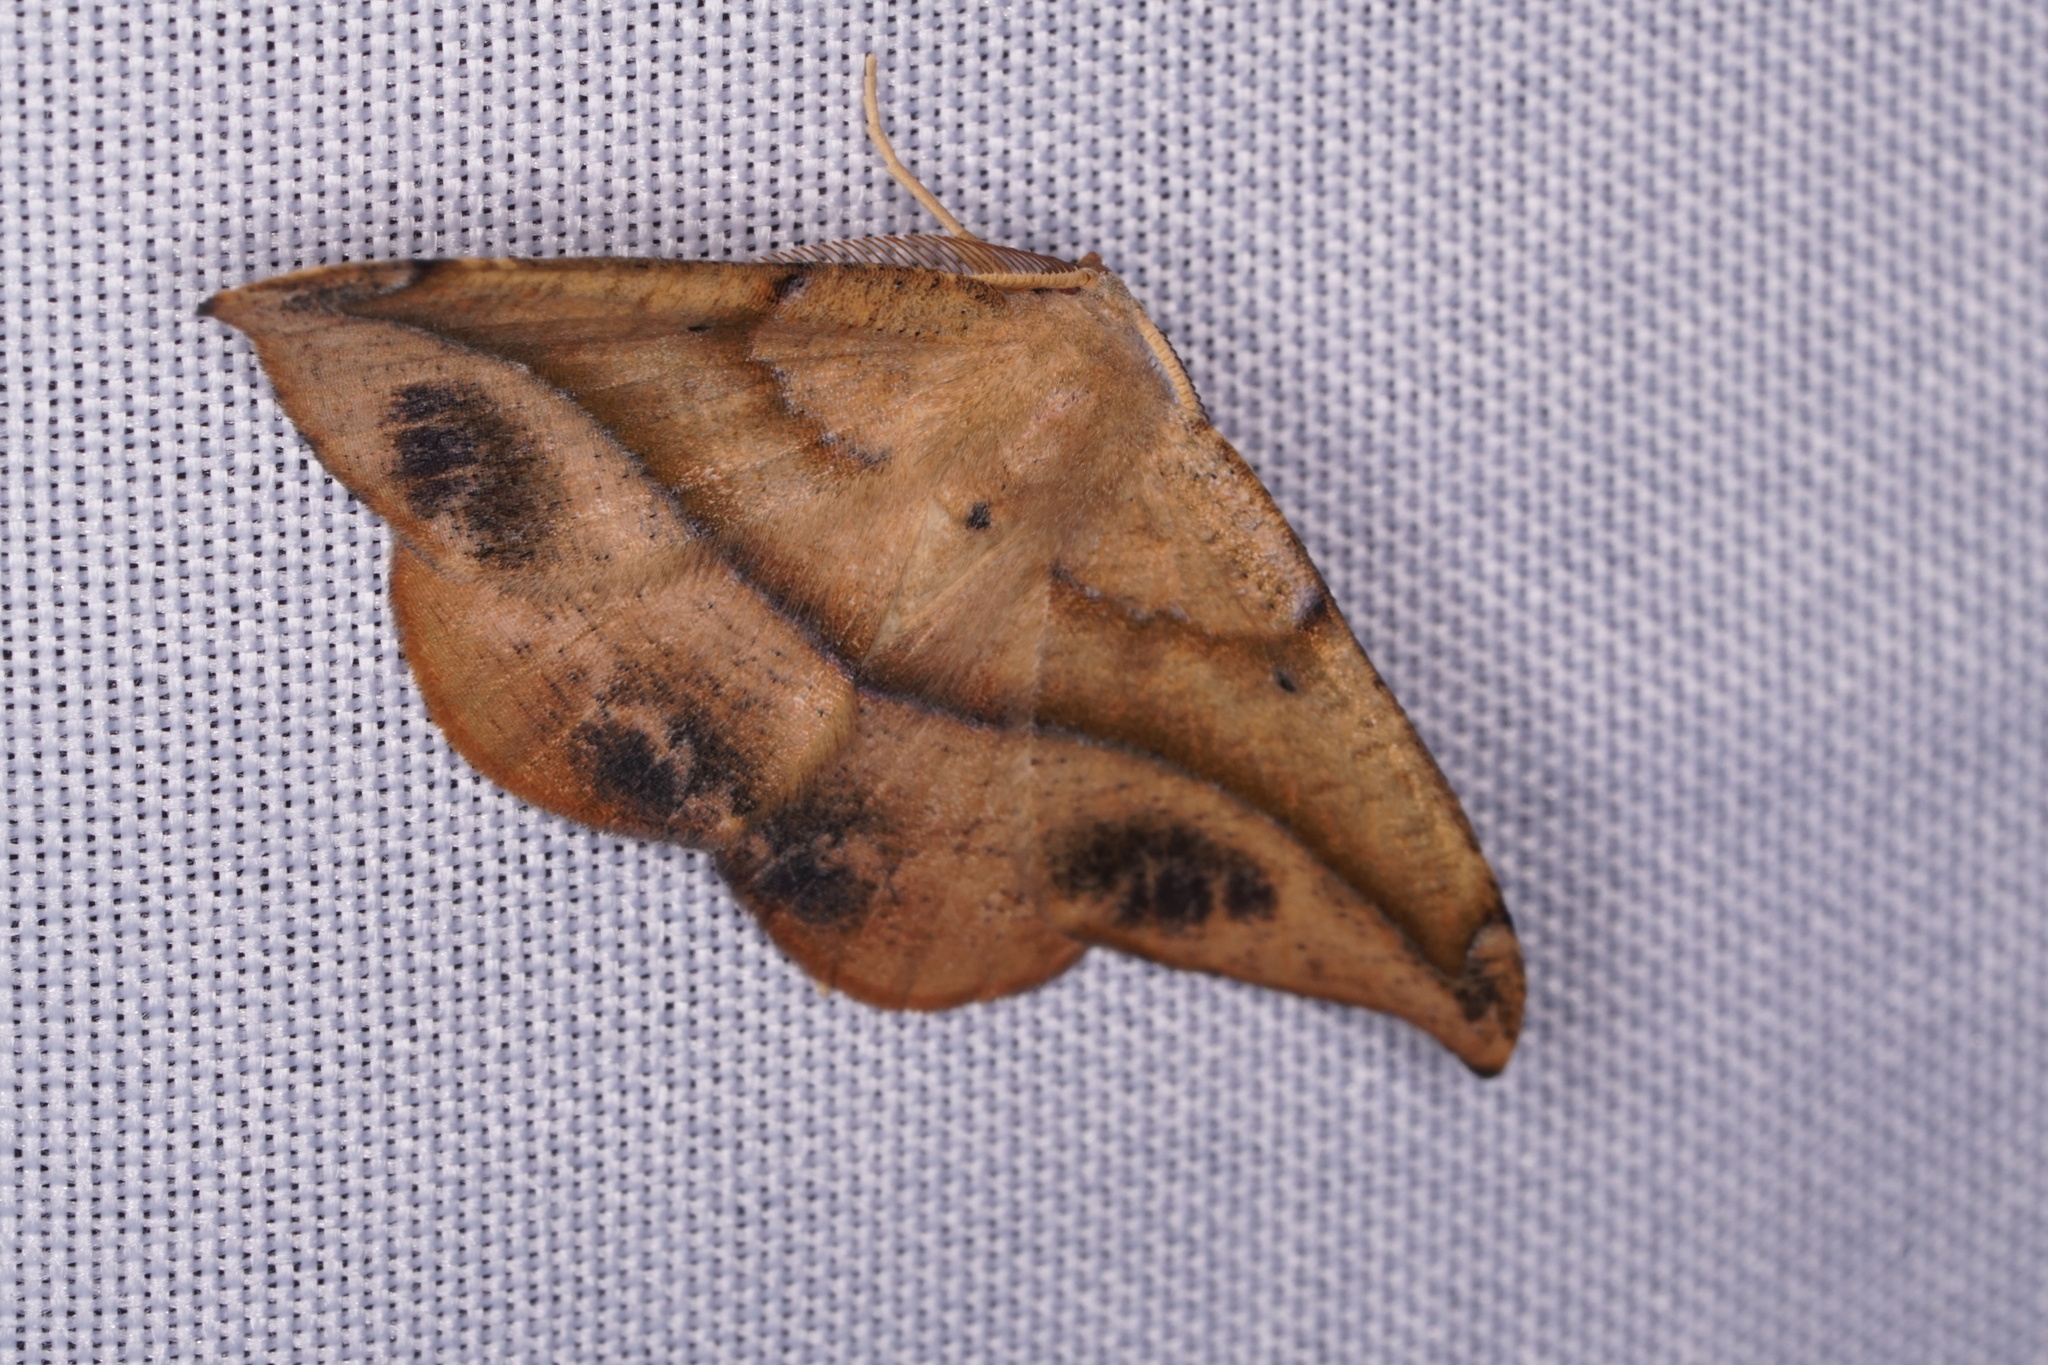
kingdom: Animalia
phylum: Arthropoda
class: Insecta
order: Lepidoptera
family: Geometridae
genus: Patalene
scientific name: Patalene olyzonaria
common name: Juniper geometer moth
